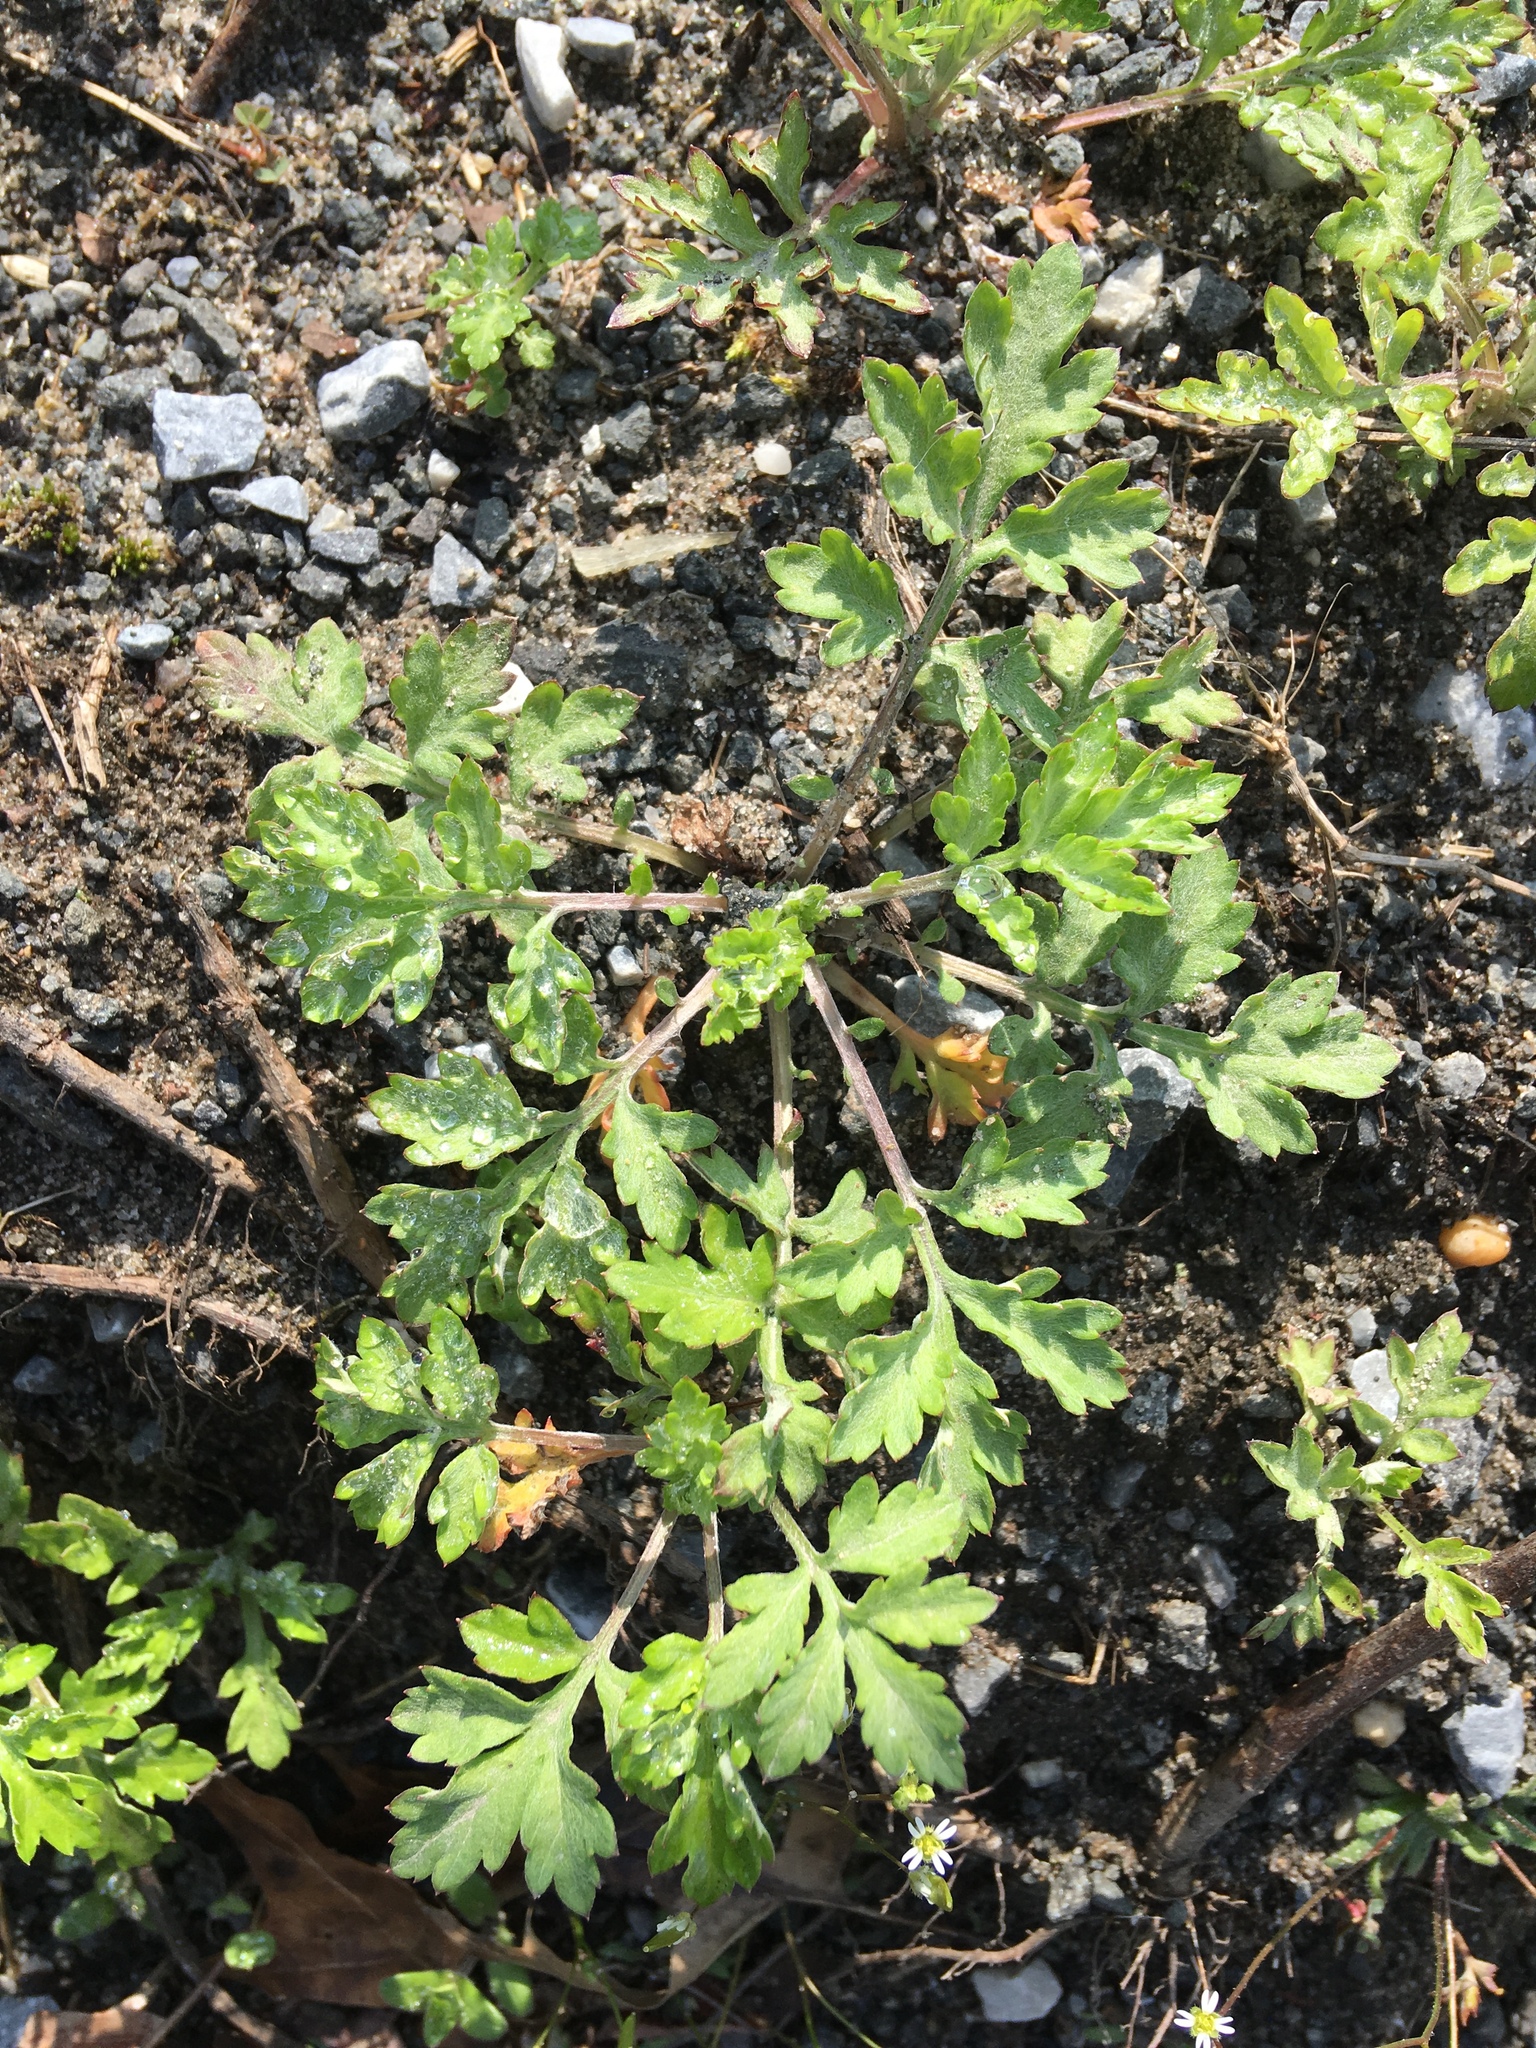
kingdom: Plantae
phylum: Tracheophyta
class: Magnoliopsida
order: Asterales
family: Asteraceae
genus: Artemisia
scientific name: Artemisia vulgaris
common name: Mugwort
